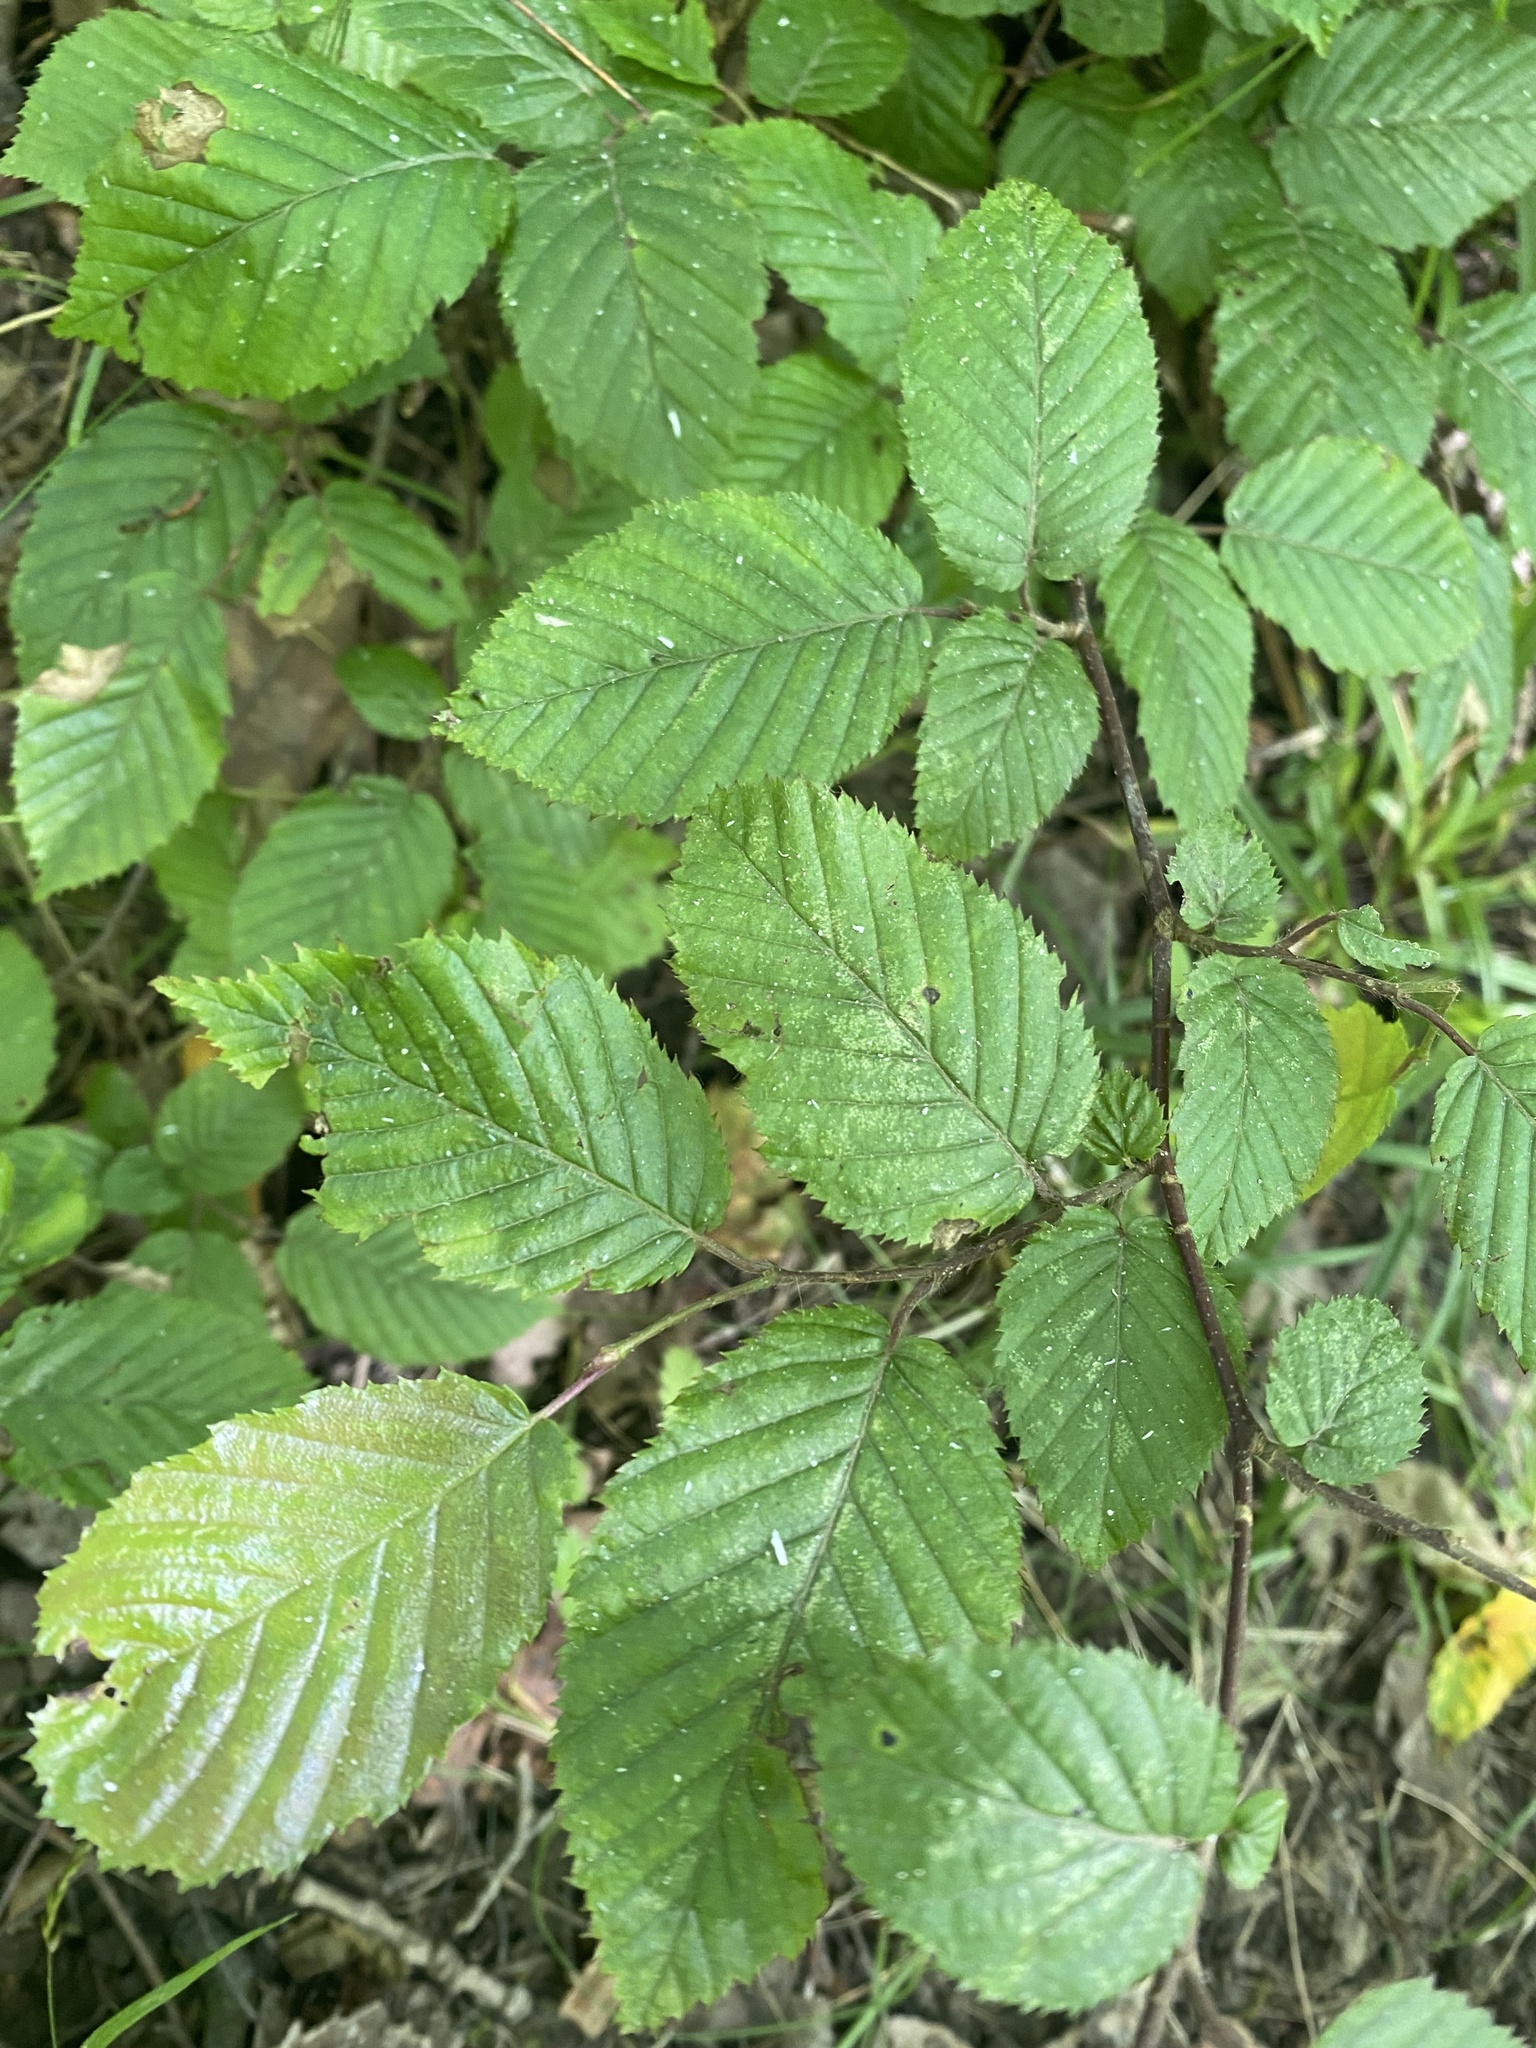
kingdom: Plantae
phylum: Tracheophyta
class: Magnoliopsida
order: Fagales
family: Betulaceae
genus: Carpinus
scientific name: Carpinus betulus
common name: Hornbeam
